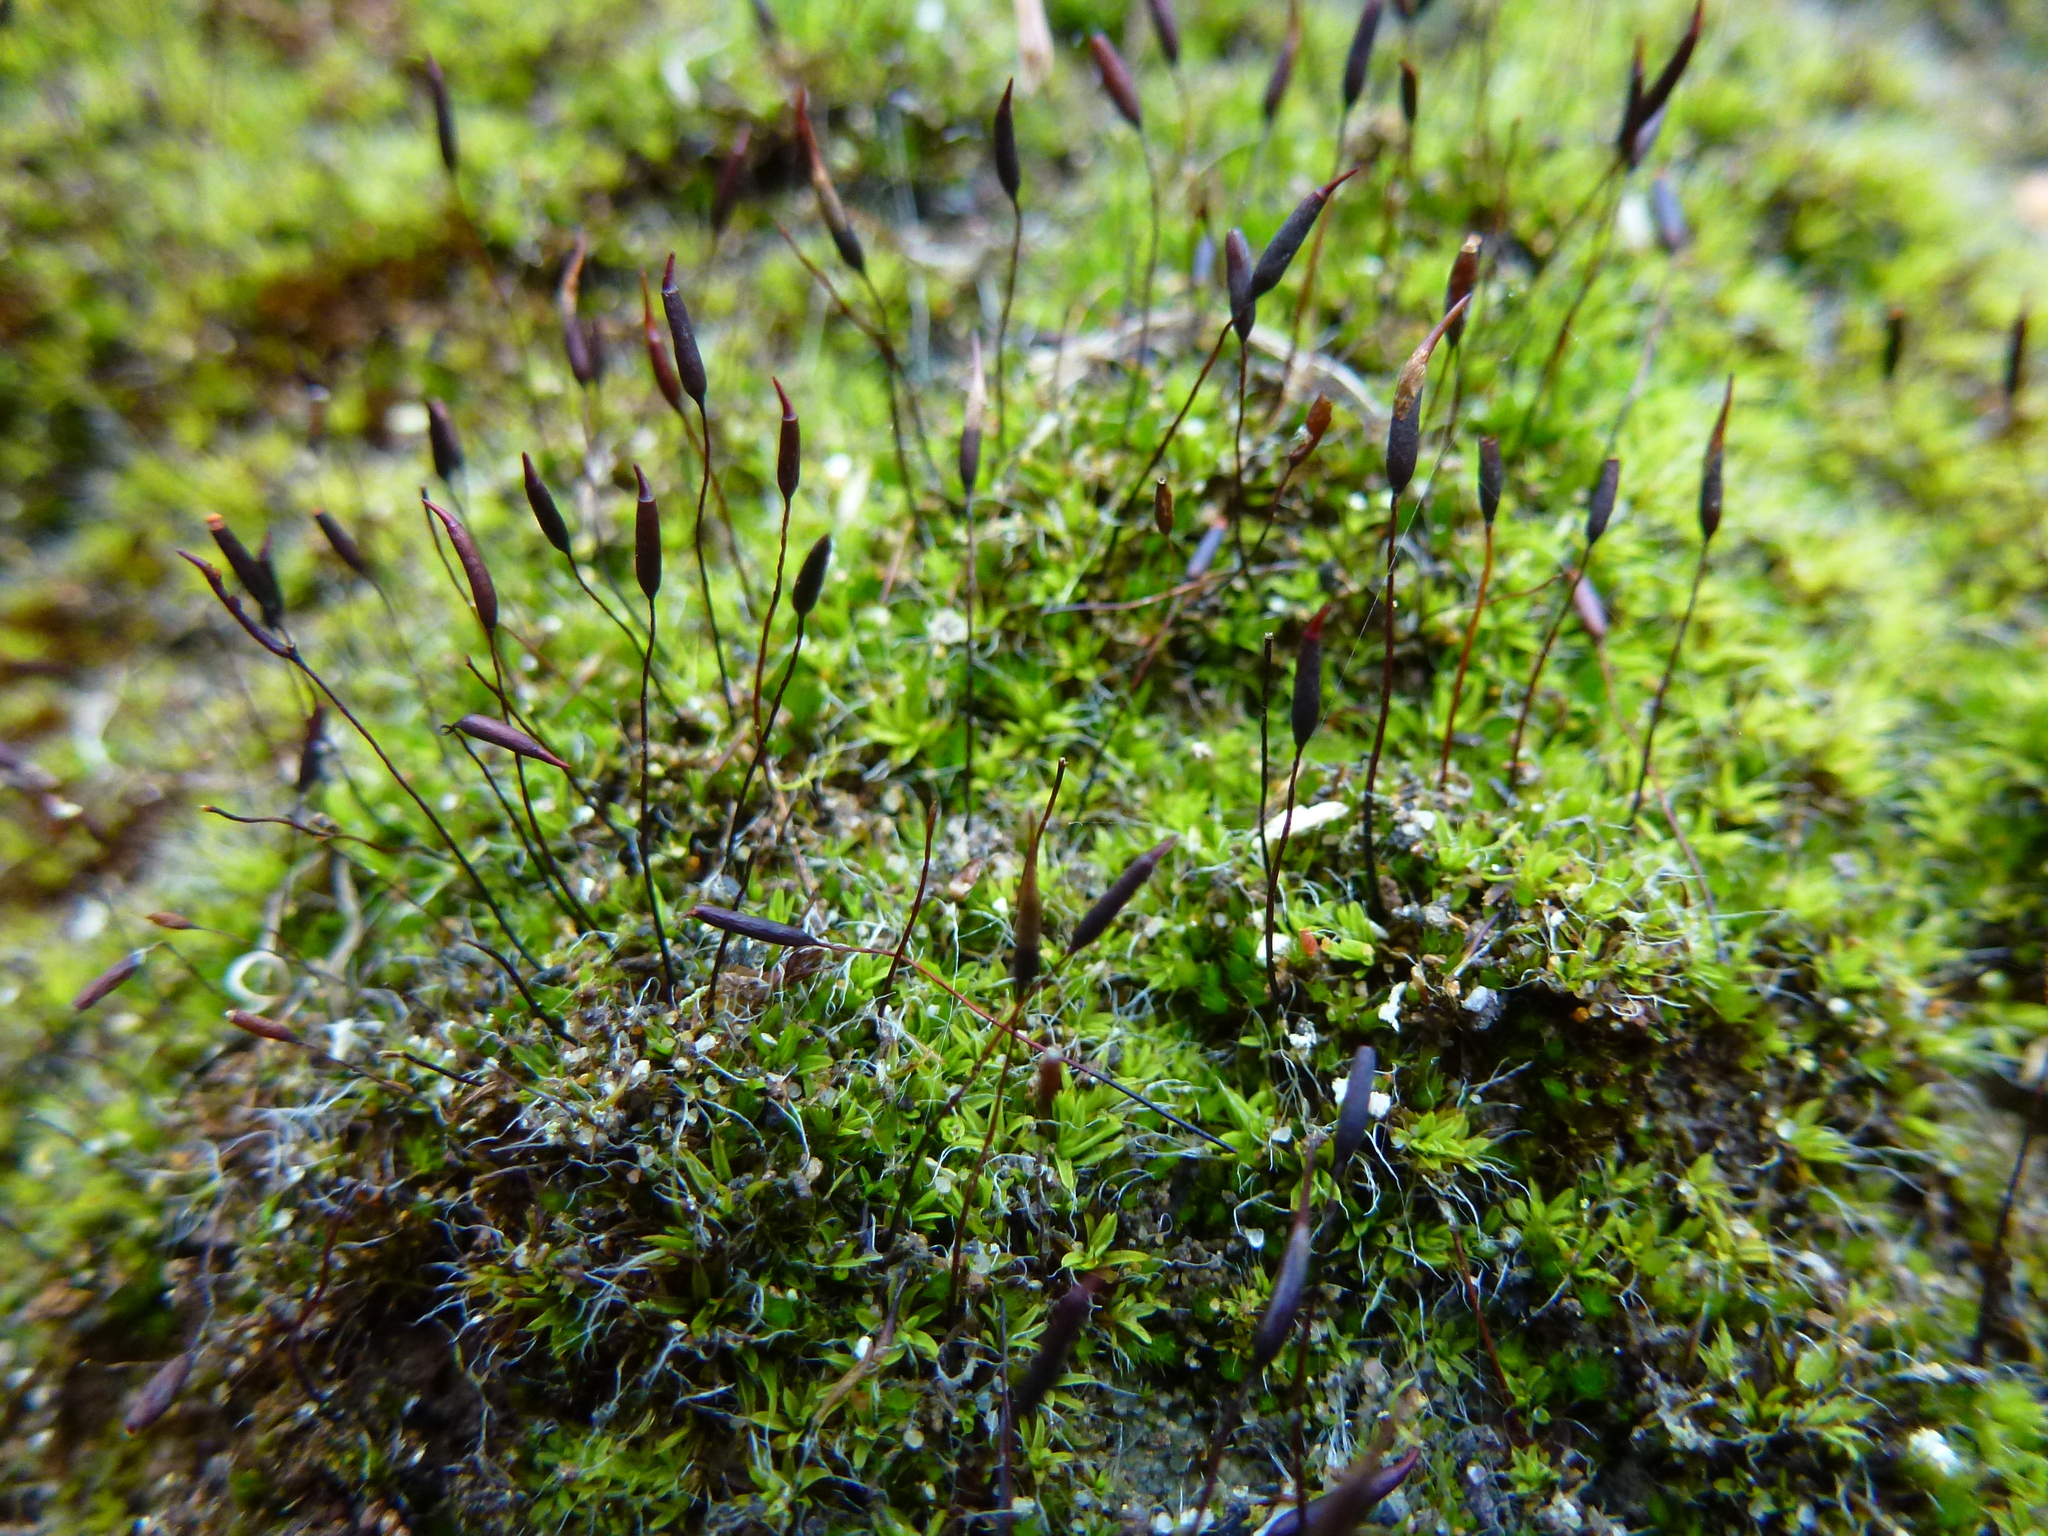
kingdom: Plantae
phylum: Bryophyta
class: Bryopsida
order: Pottiales
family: Pottiaceae
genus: Tortula
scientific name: Tortula muralis
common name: Wall screw-moss
